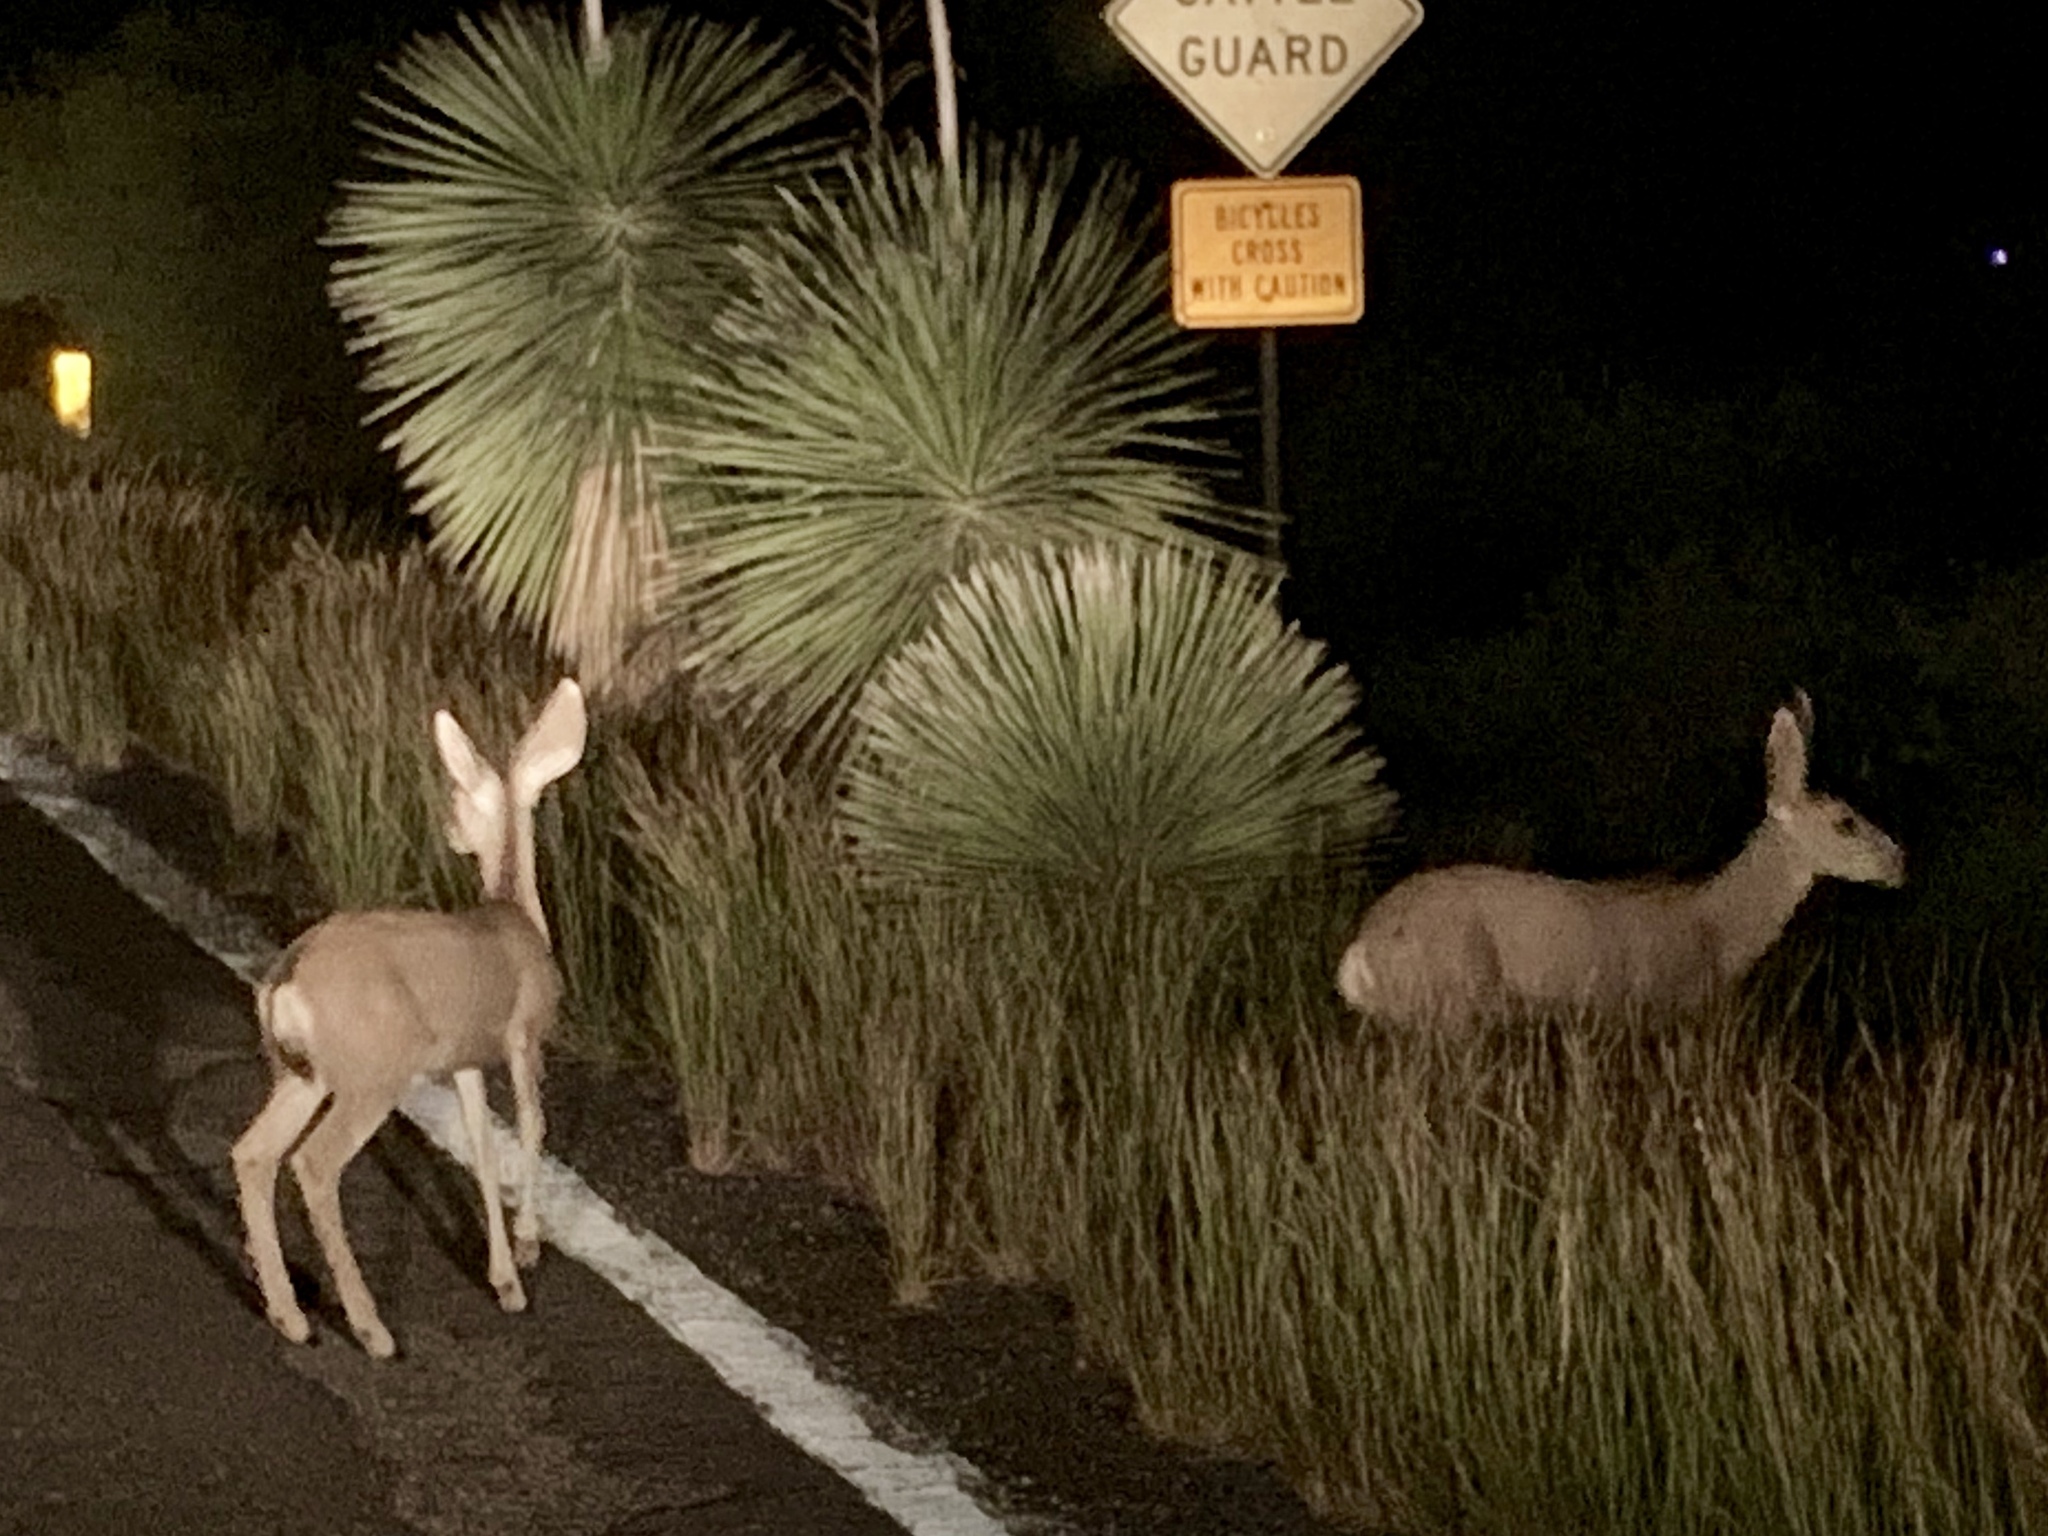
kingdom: Animalia
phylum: Chordata
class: Mammalia
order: Artiodactyla
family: Cervidae
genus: Odocoileus
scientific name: Odocoileus hemionus
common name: Mule deer
